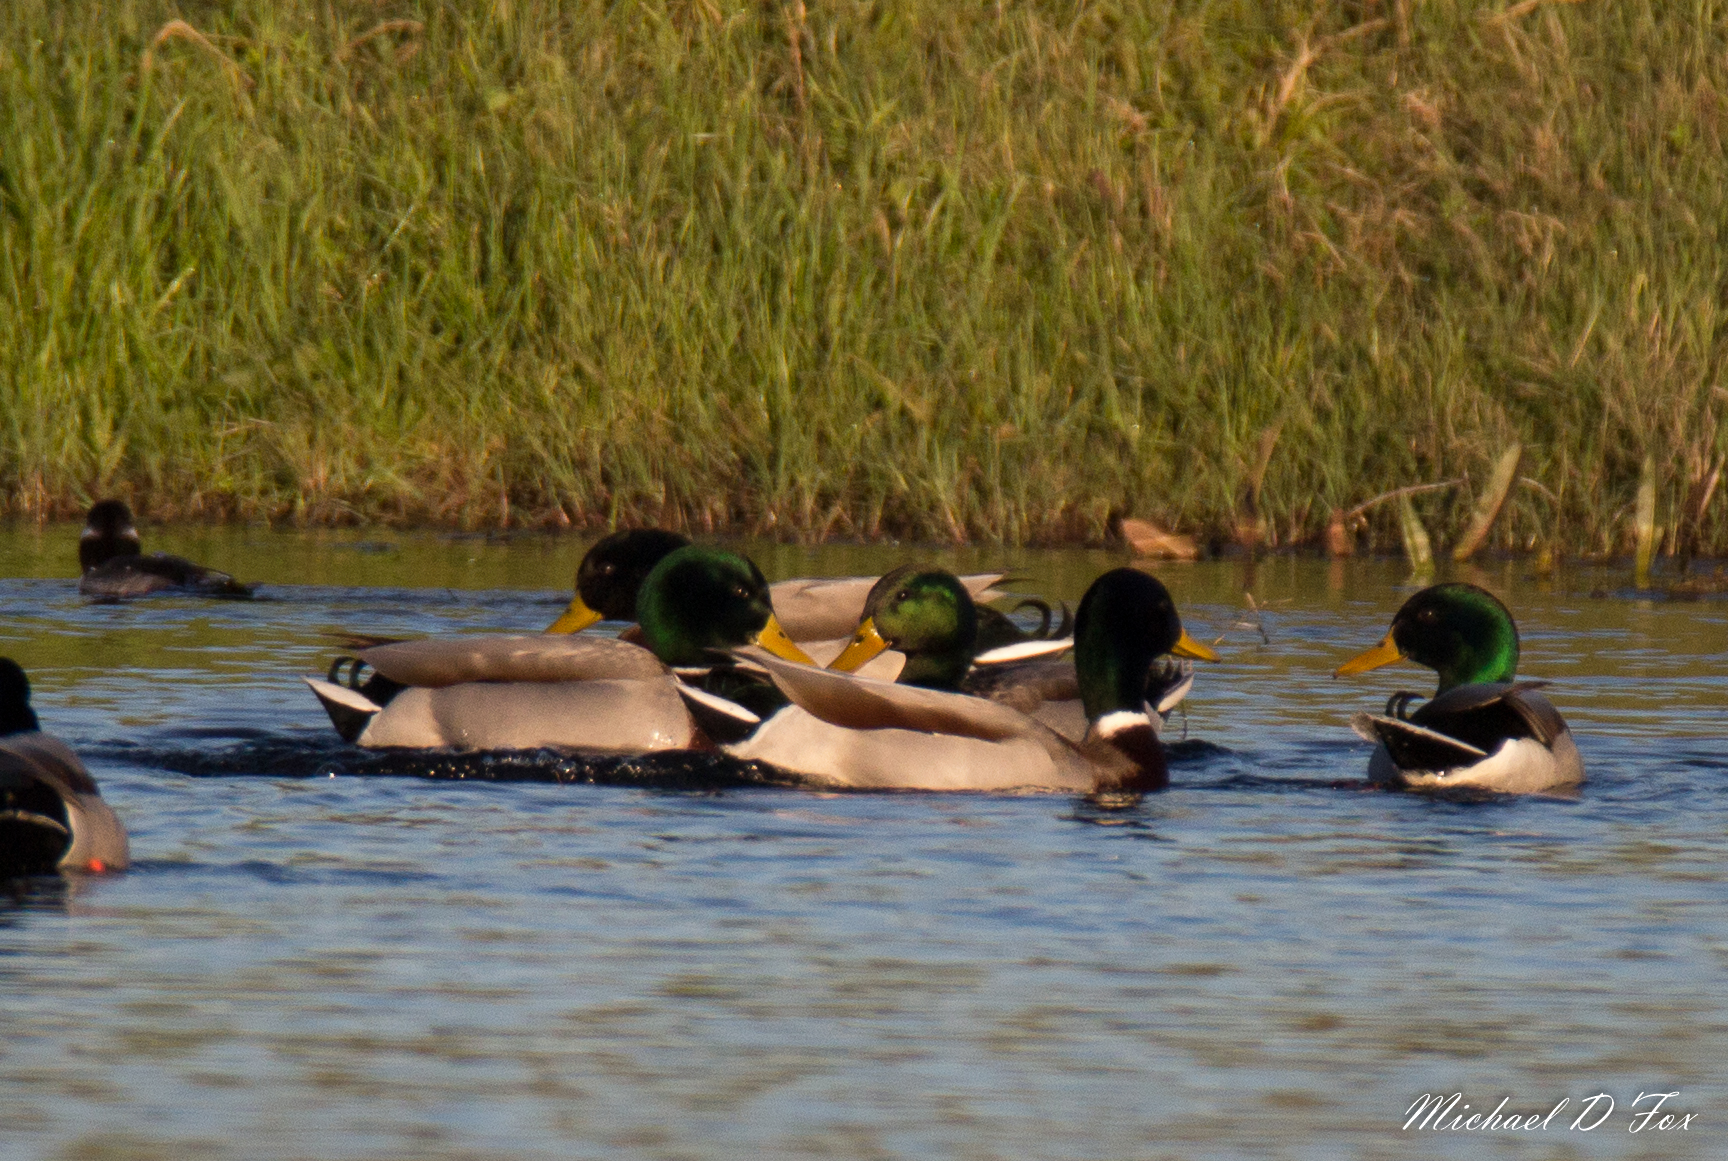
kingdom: Animalia
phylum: Chordata
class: Aves
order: Anseriformes
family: Anatidae
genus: Anas
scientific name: Anas platyrhynchos
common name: Mallard
